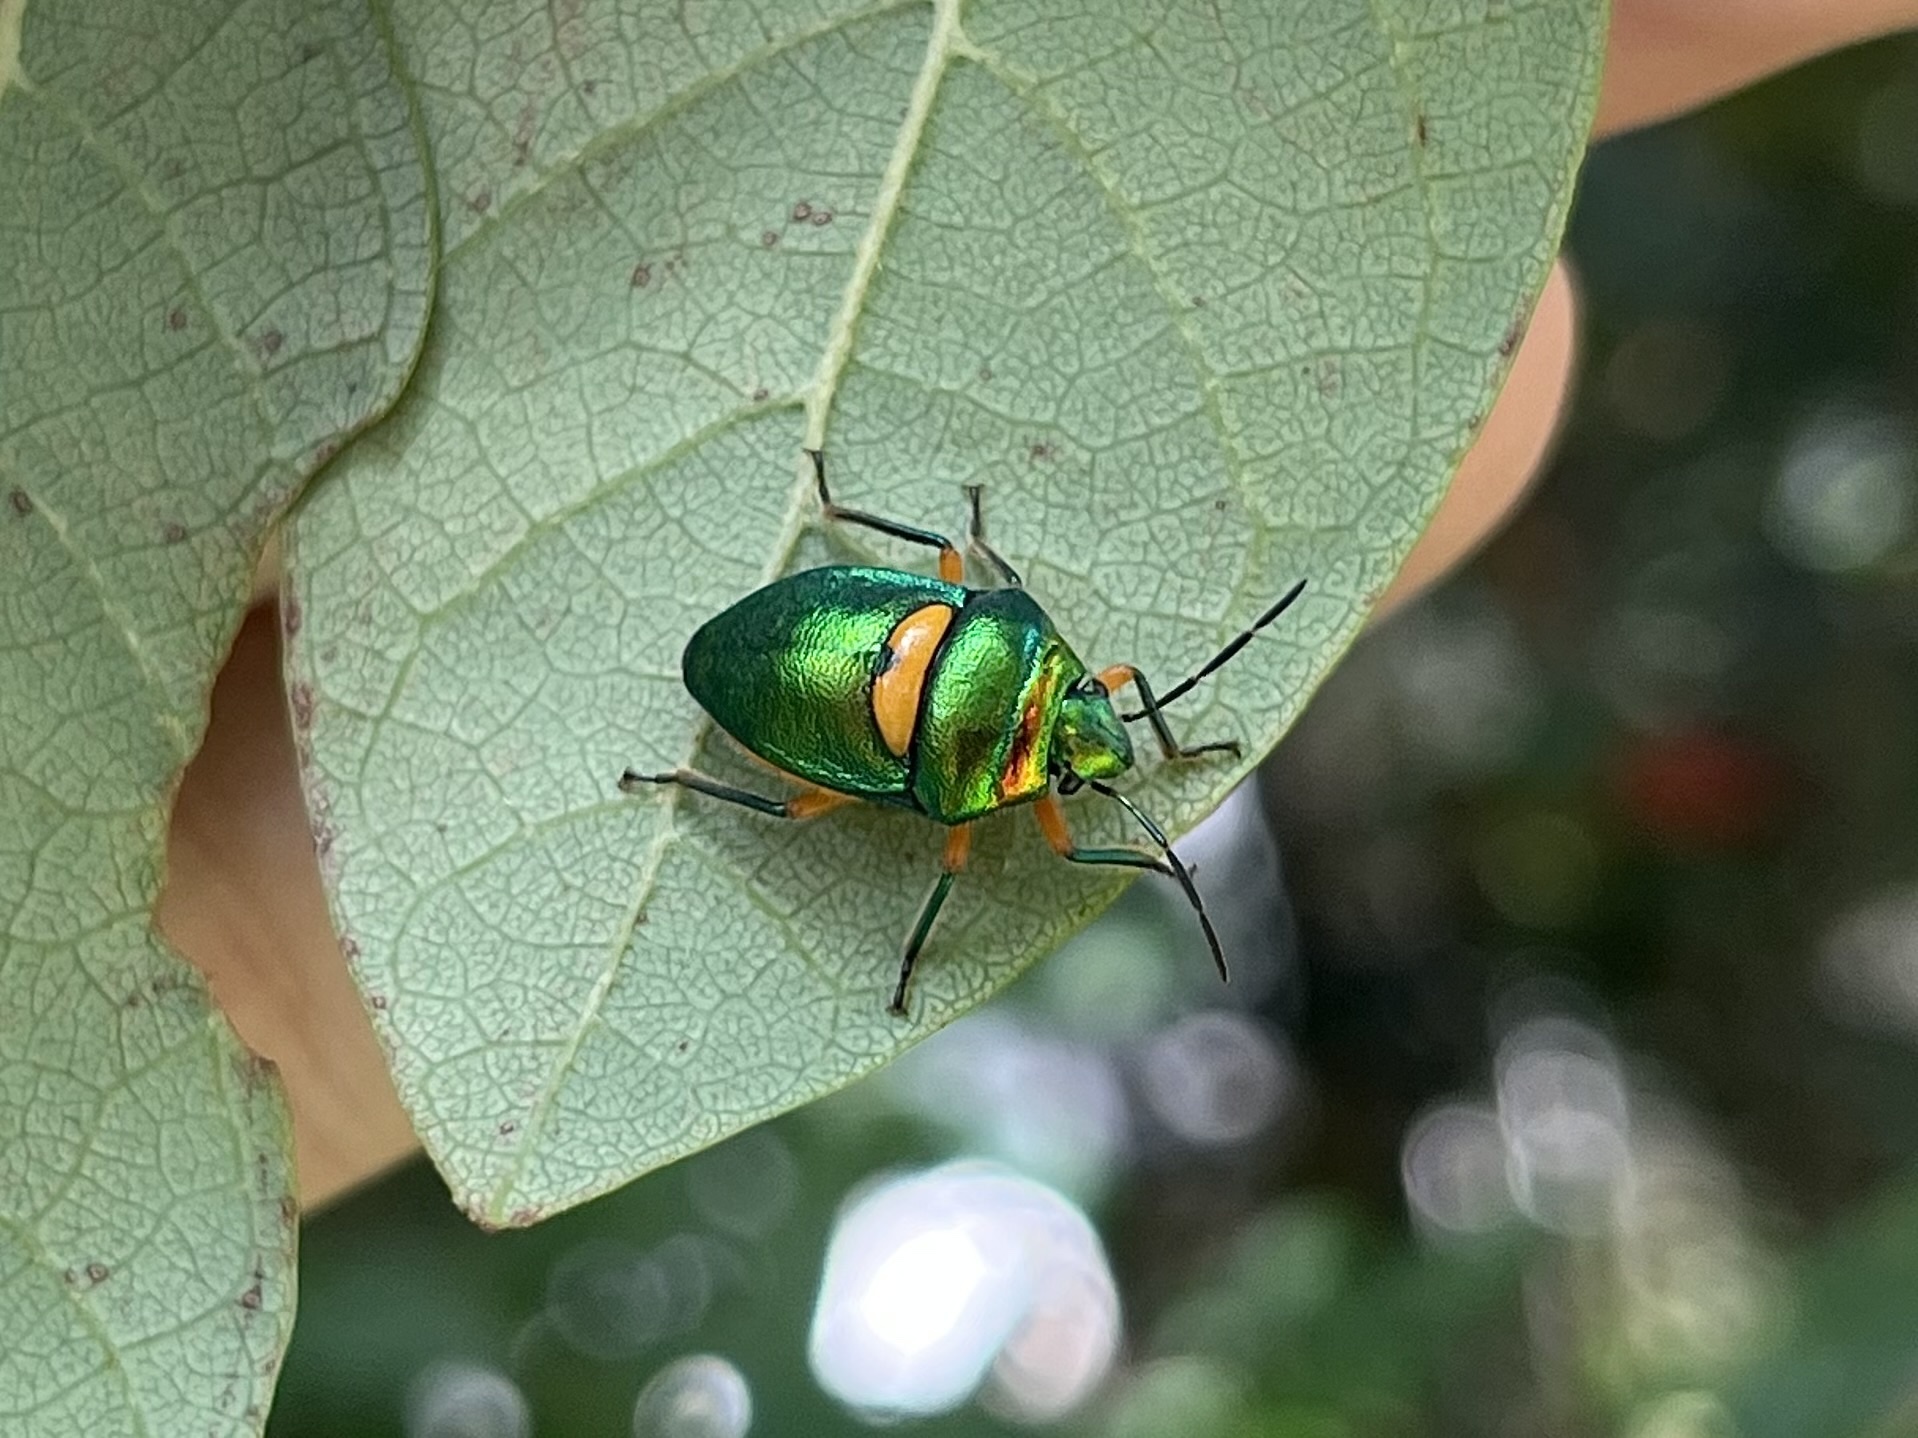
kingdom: Animalia
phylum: Arthropoda
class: Insecta
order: Hemiptera
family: Scutelleridae
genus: Lampromicra
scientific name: Lampromicra senator
